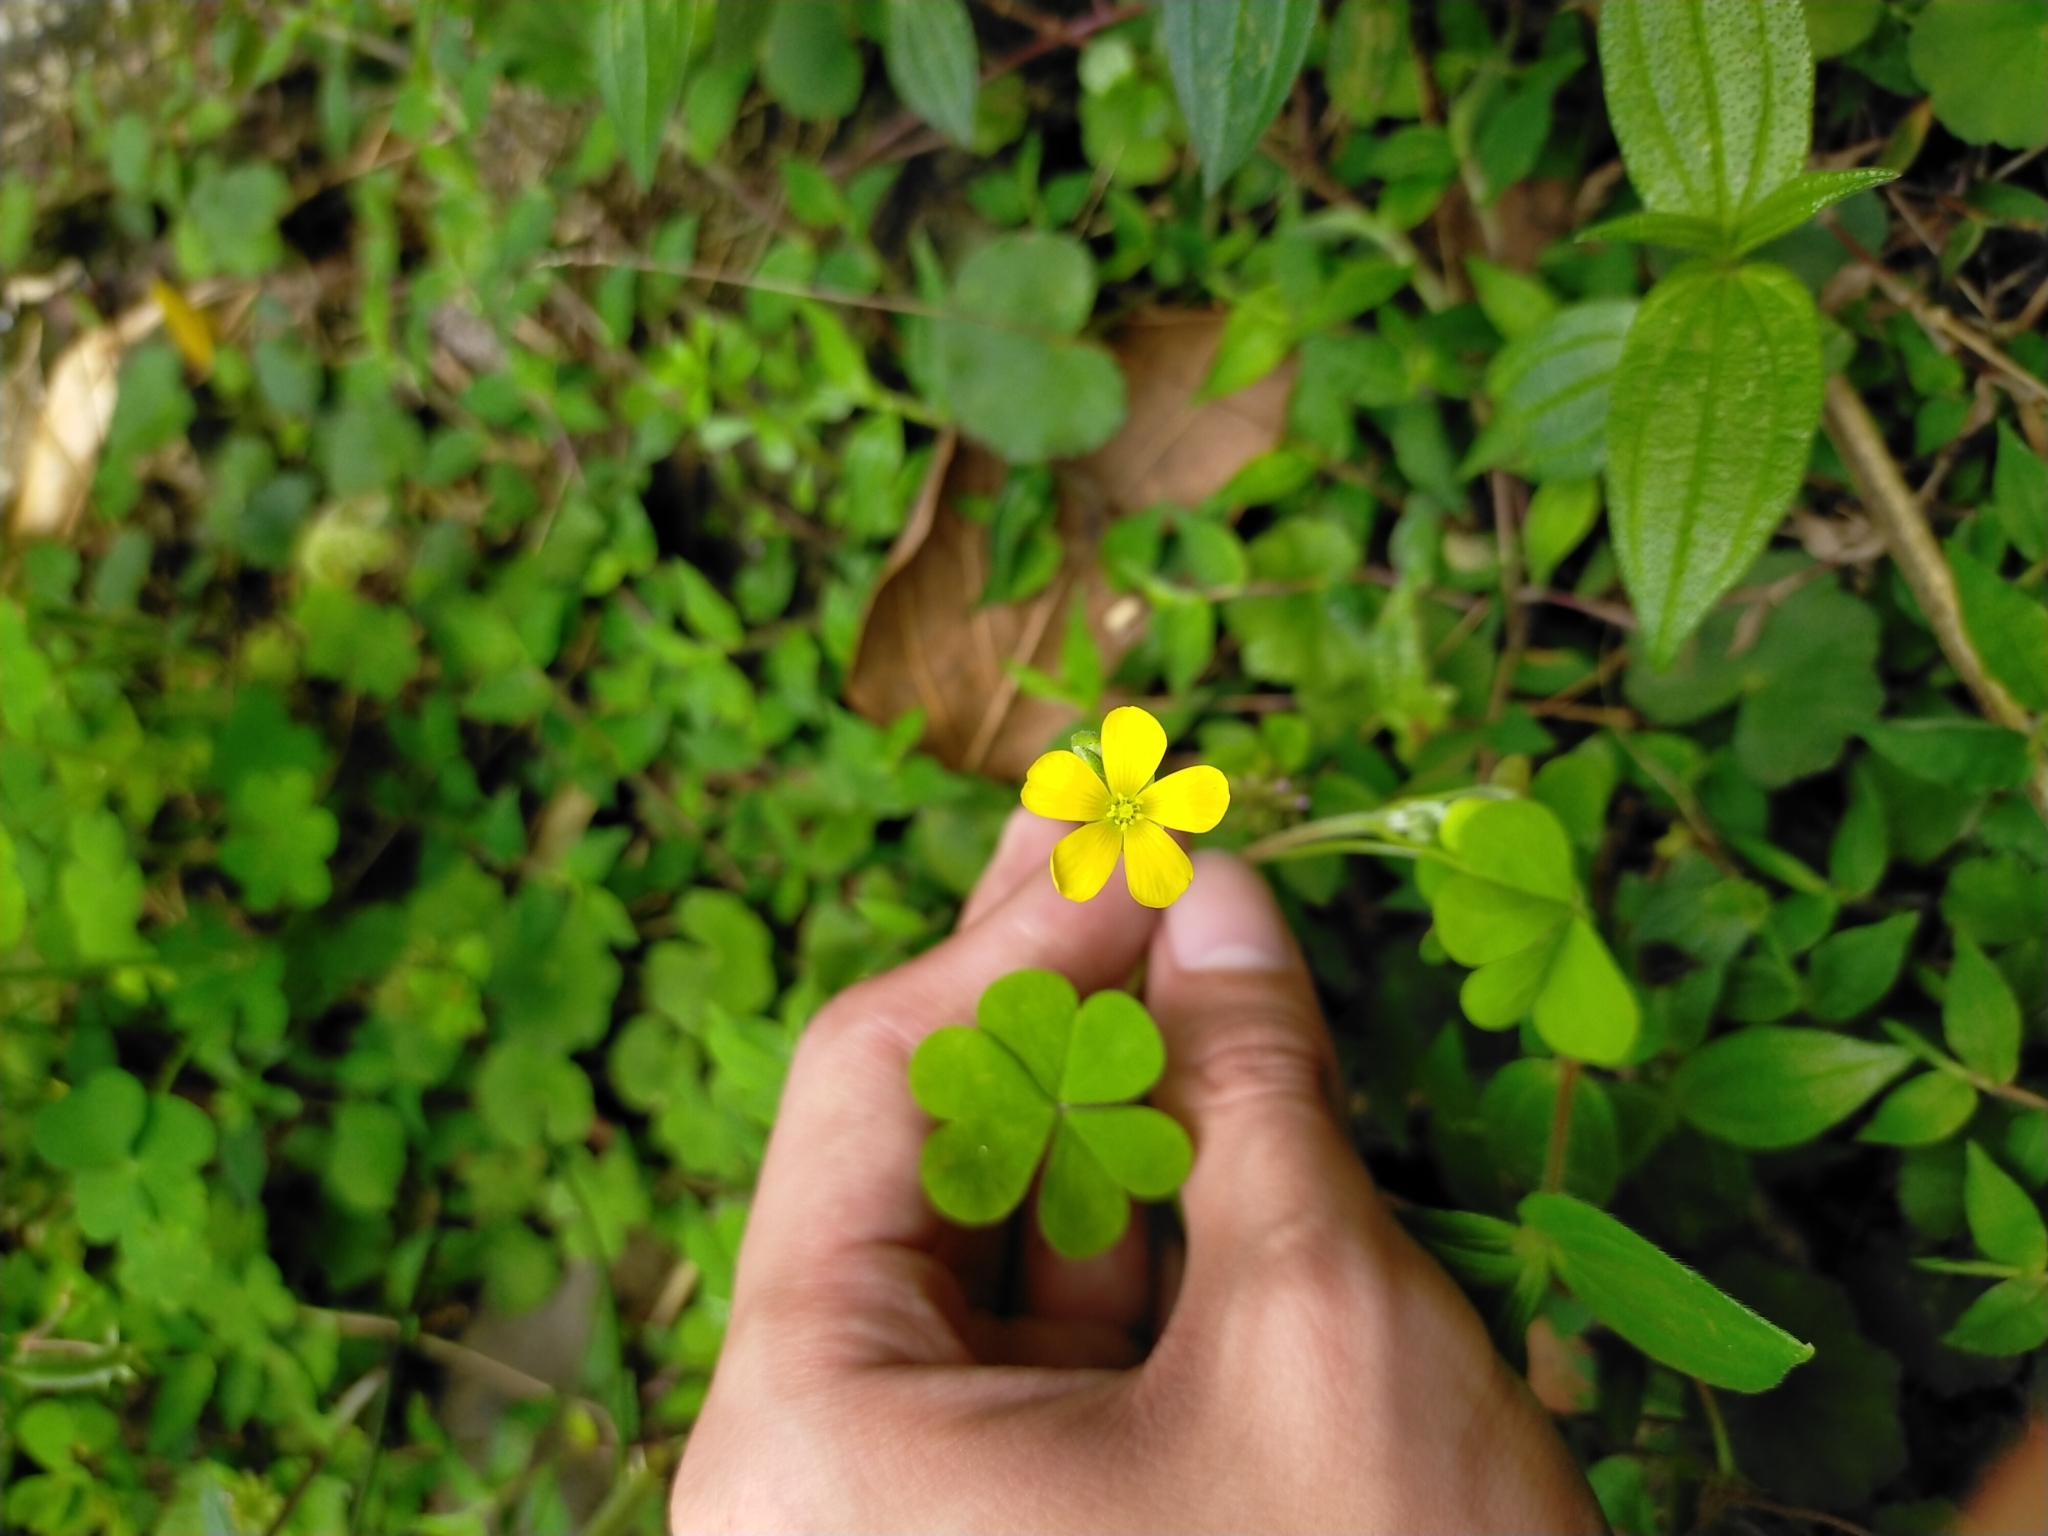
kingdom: Plantae
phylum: Tracheophyta
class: Magnoliopsida
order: Oxalidales
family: Oxalidaceae
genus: Oxalis
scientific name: Oxalis corniculata
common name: Procumbent yellow-sorrel
